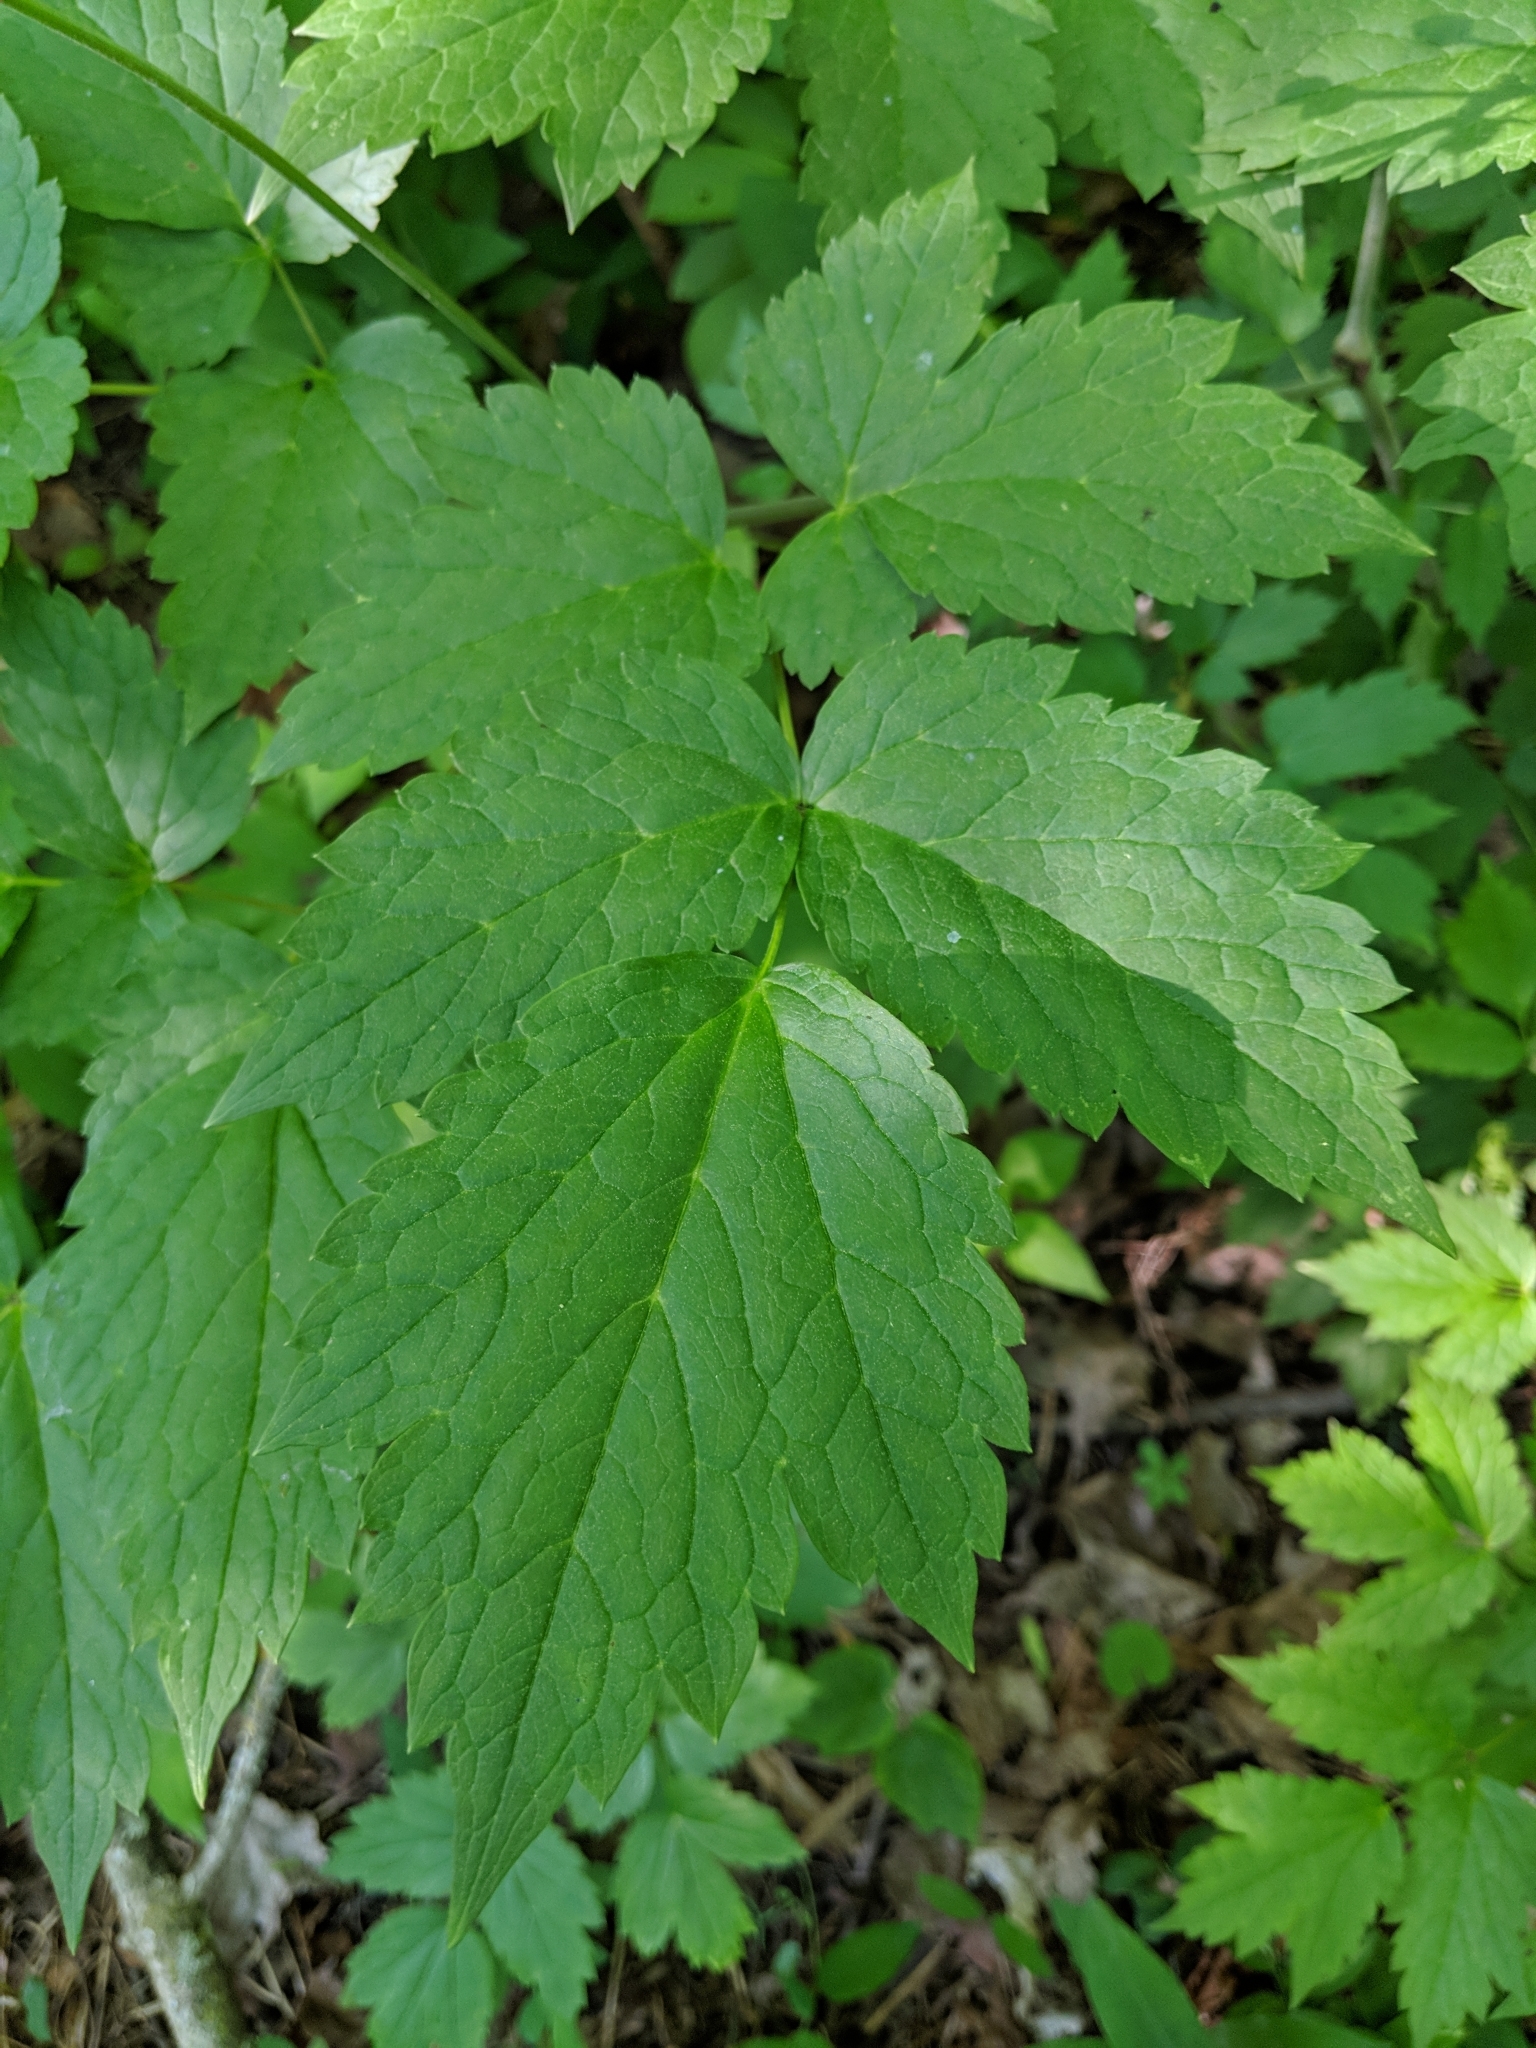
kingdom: Plantae
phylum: Tracheophyta
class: Magnoliopsida
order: Ranunculales
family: Ranunculaceae
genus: Actaea
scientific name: Actaea rubra
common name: Red baneberry
